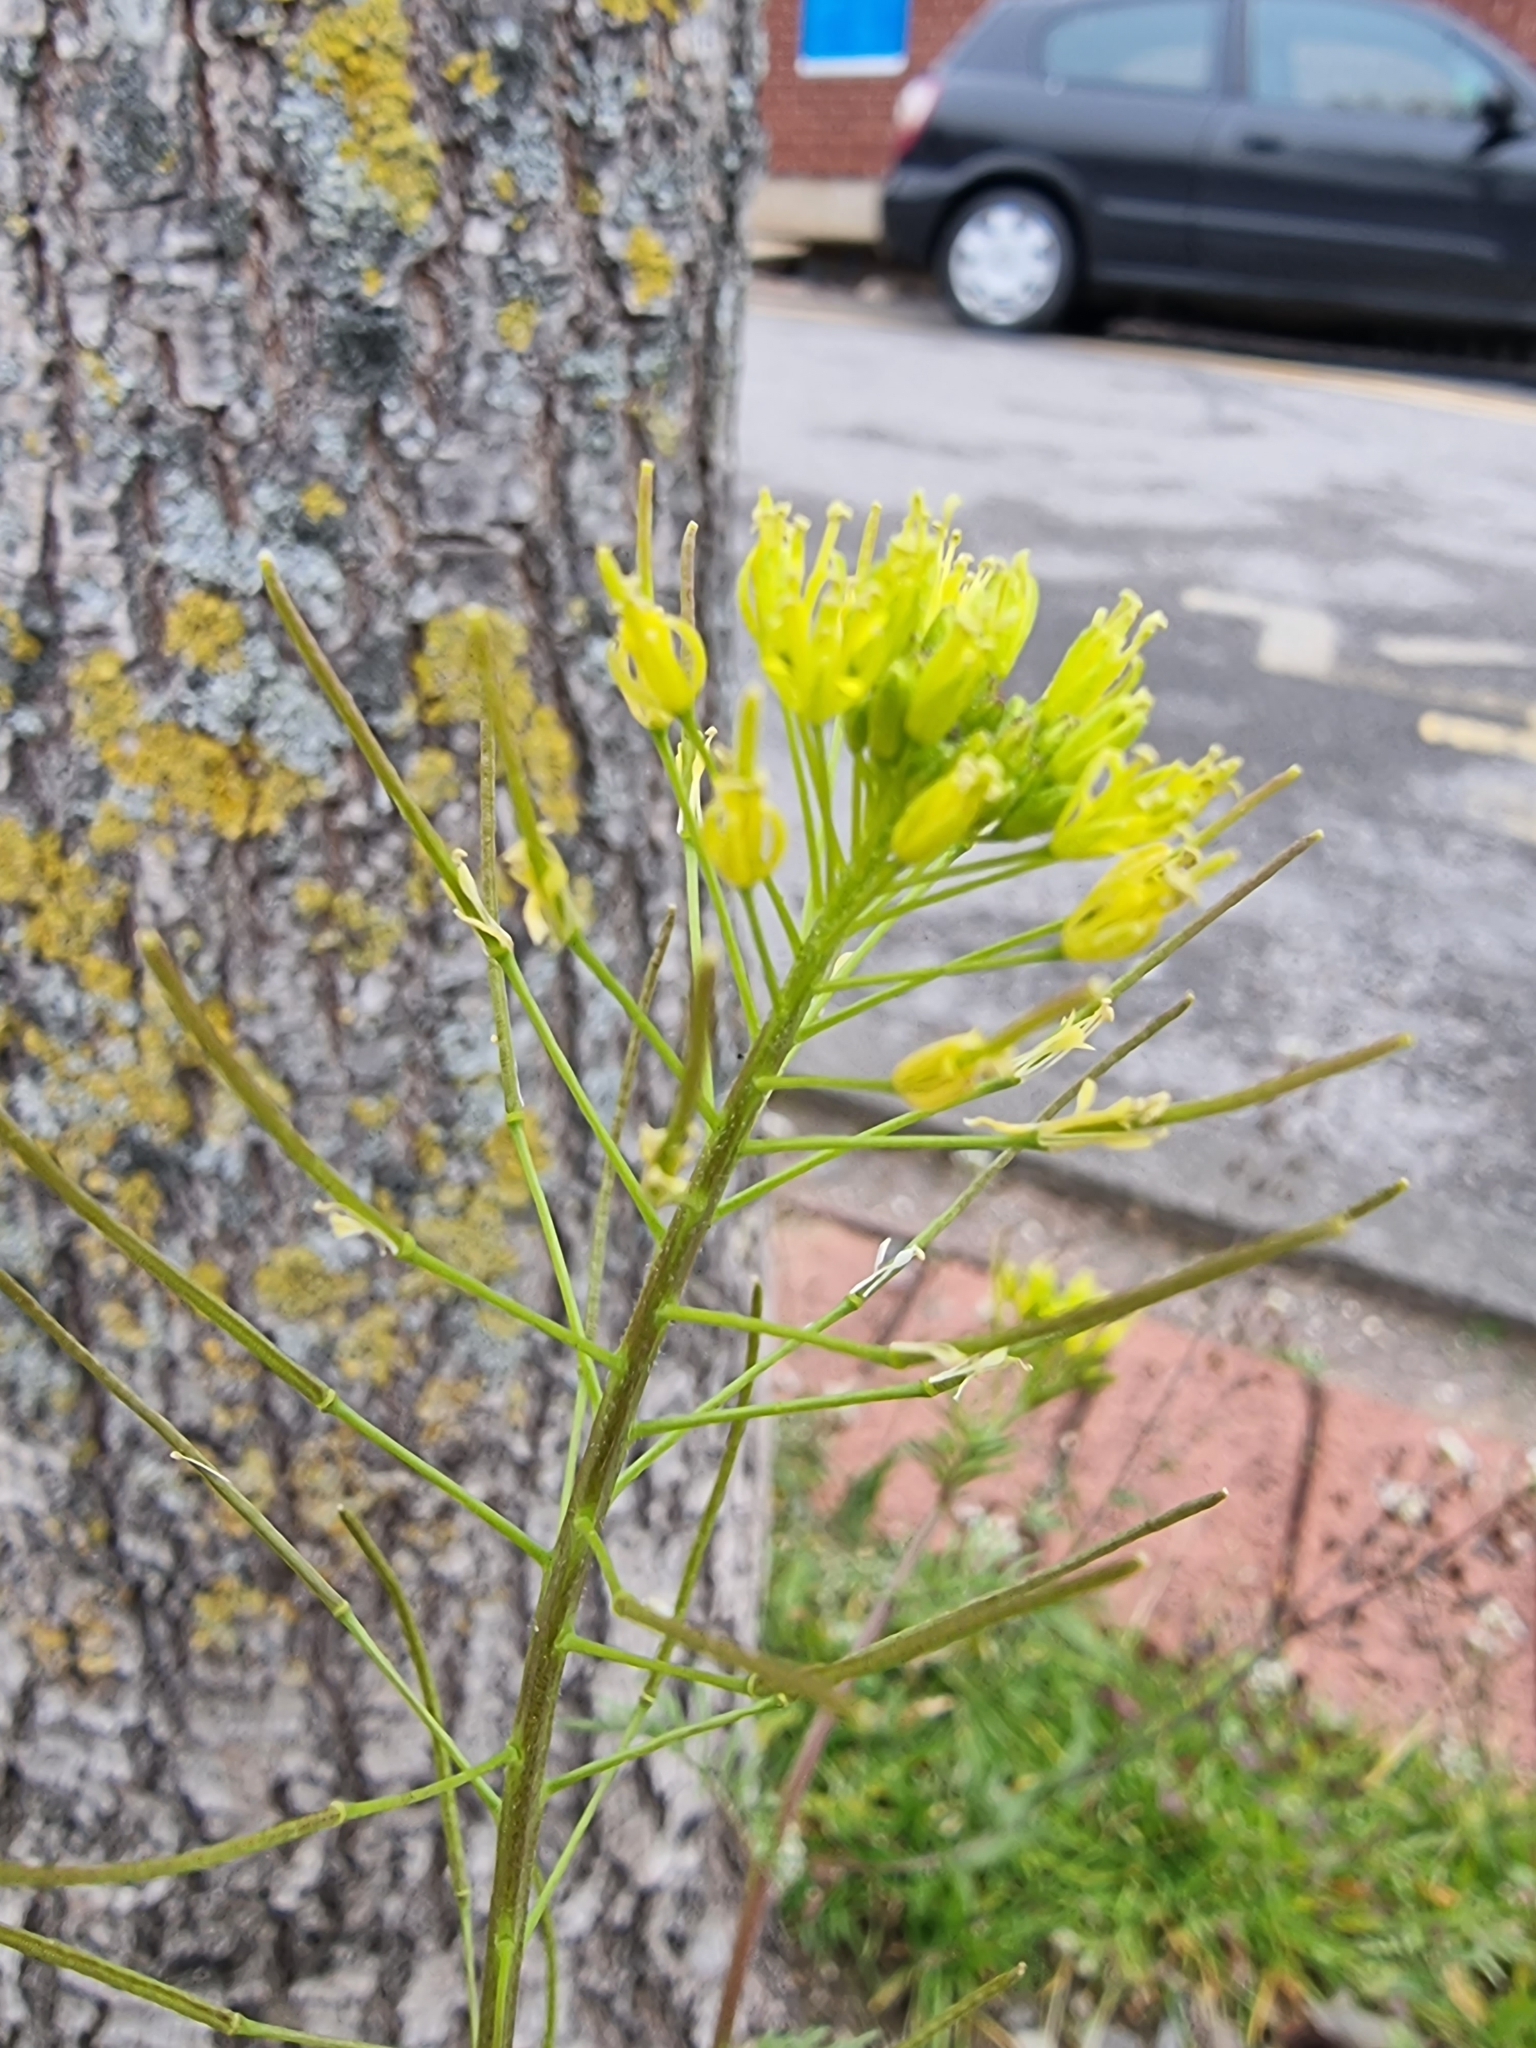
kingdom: Plantae
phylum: Tracheophyta
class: Magnoliopsida
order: Brassicales
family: Brassicaceae
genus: Descurainia
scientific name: Descurainia sophia
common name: Flixweed
